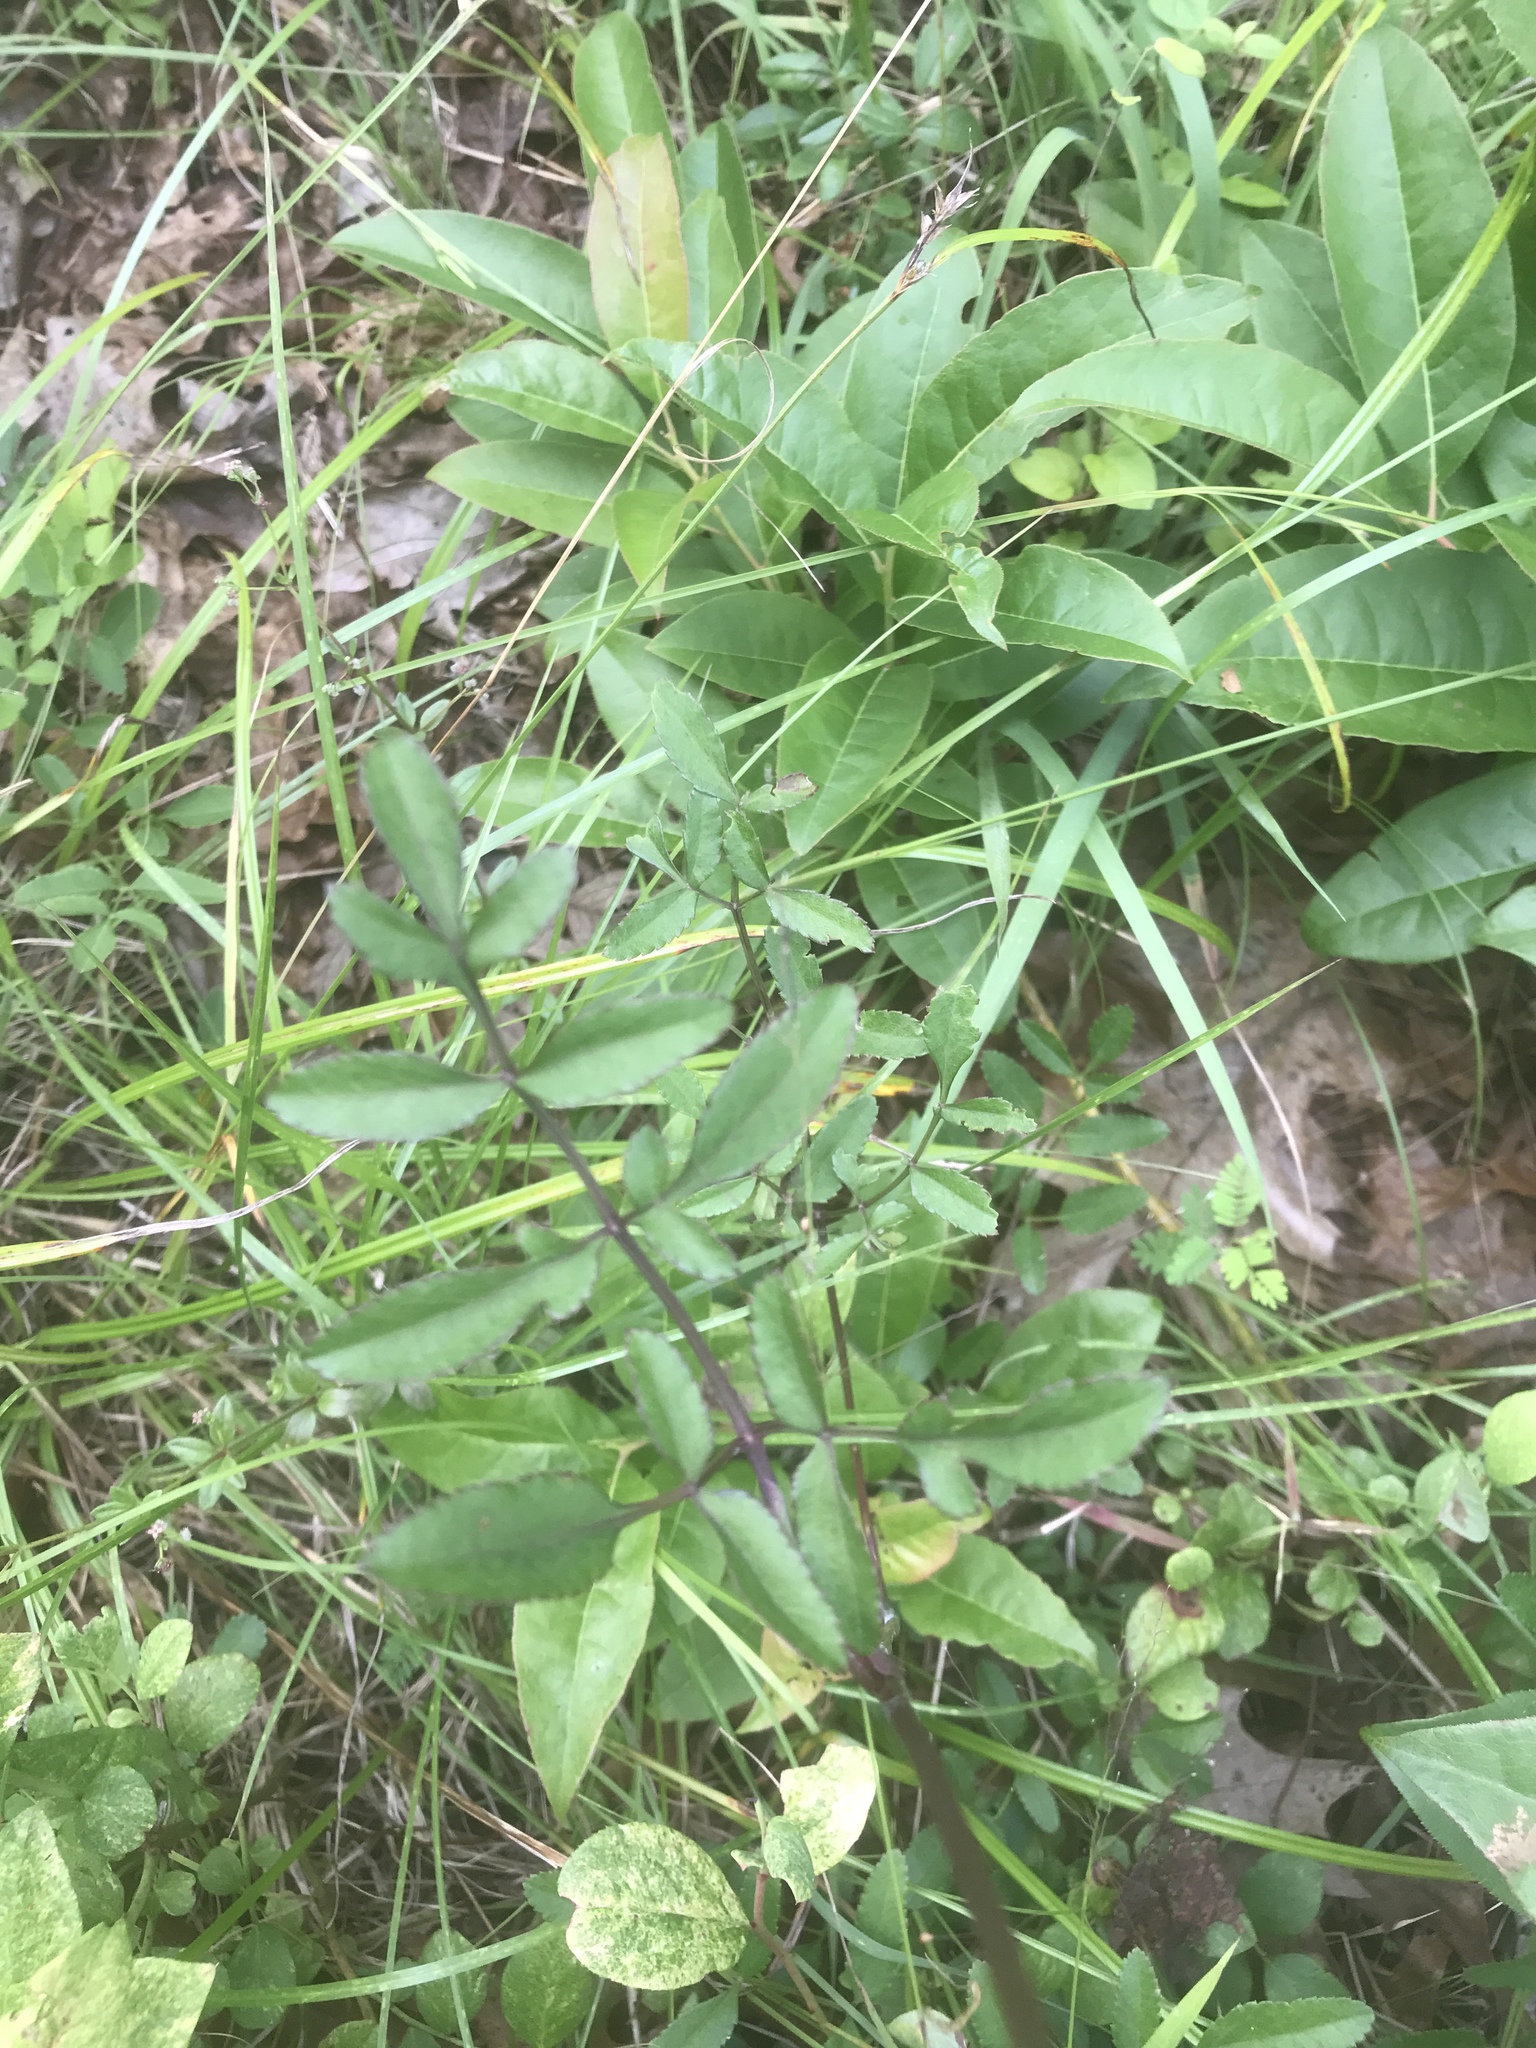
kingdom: Plantae
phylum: Tracheophyta
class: Magnoliopsida
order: Apiales
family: Apiaceae
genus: Angelica
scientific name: Angelica venenosa
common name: Hairy angelica
